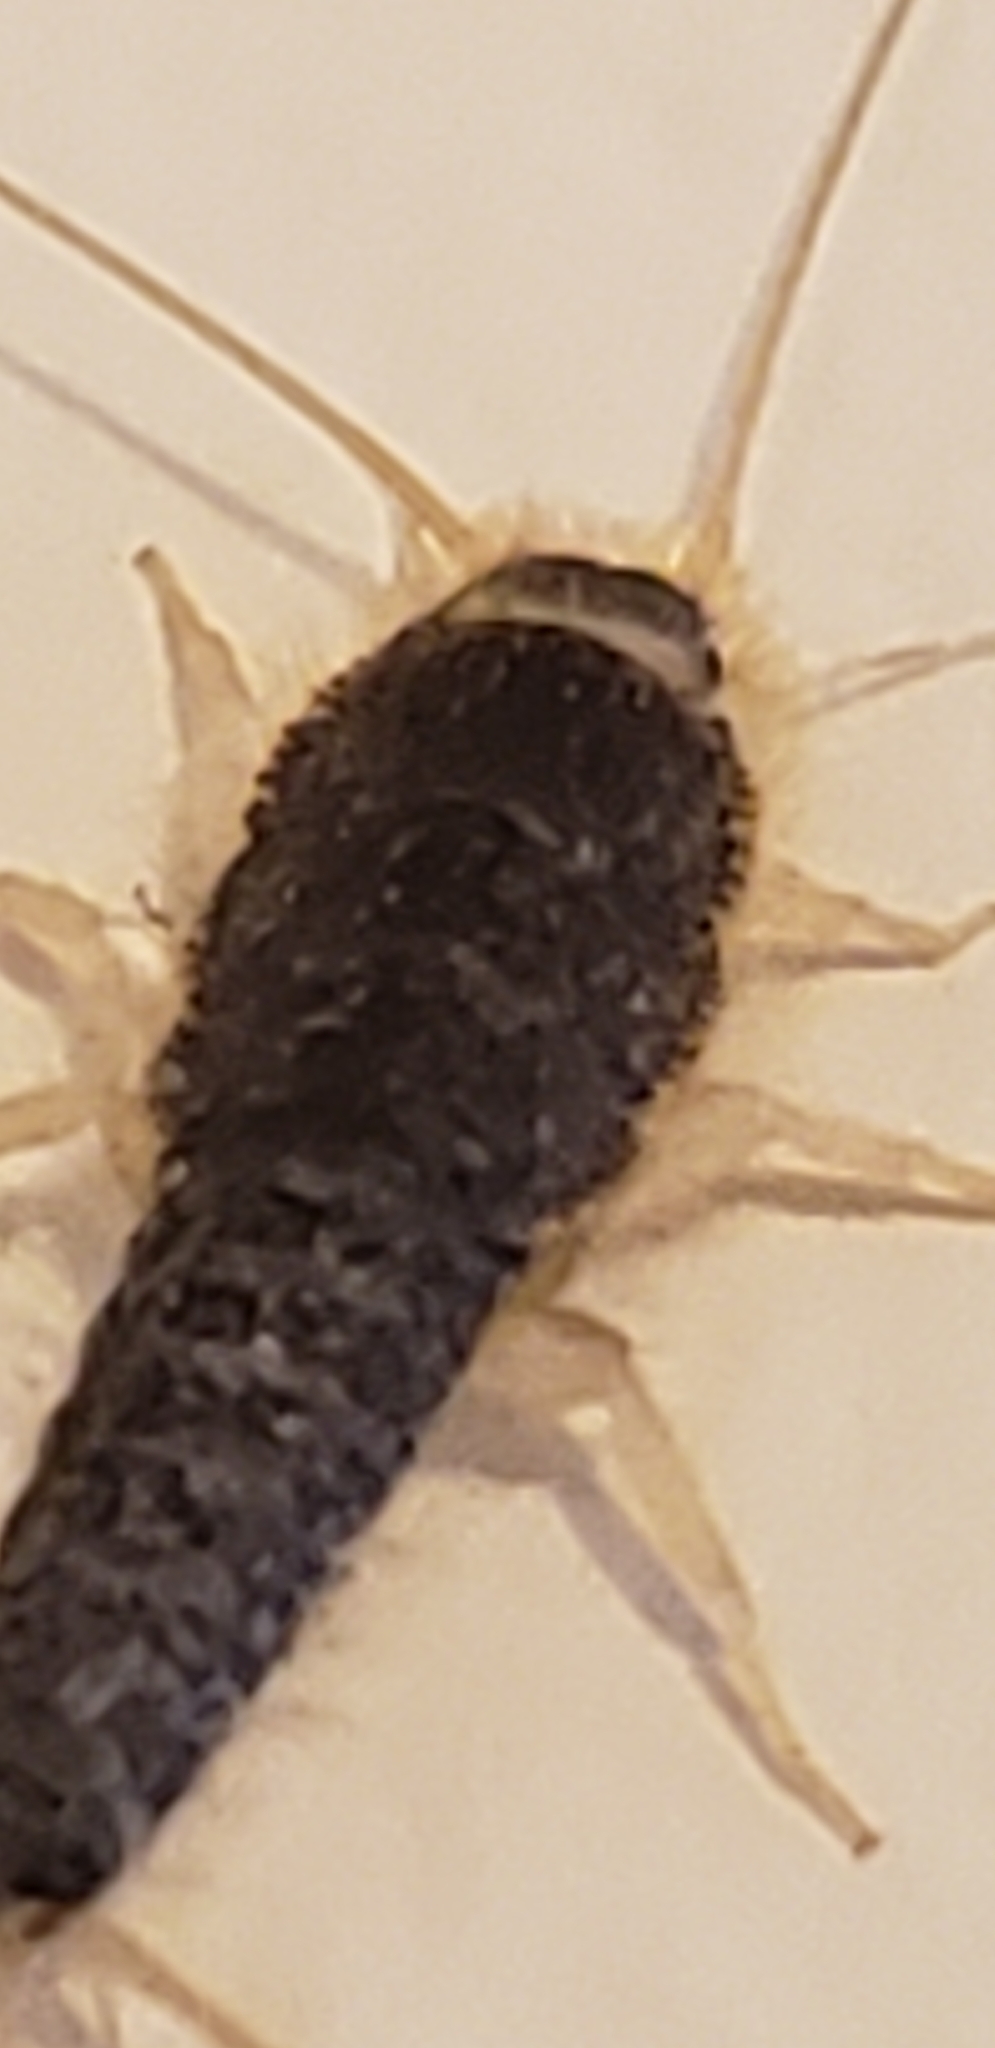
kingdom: Animalia
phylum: Arthropoda
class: Insecta
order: Zygentoma
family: Lepismatidae
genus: Ctenolepisma
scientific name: Ctenolepisma longicaudatum
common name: Silverfish
